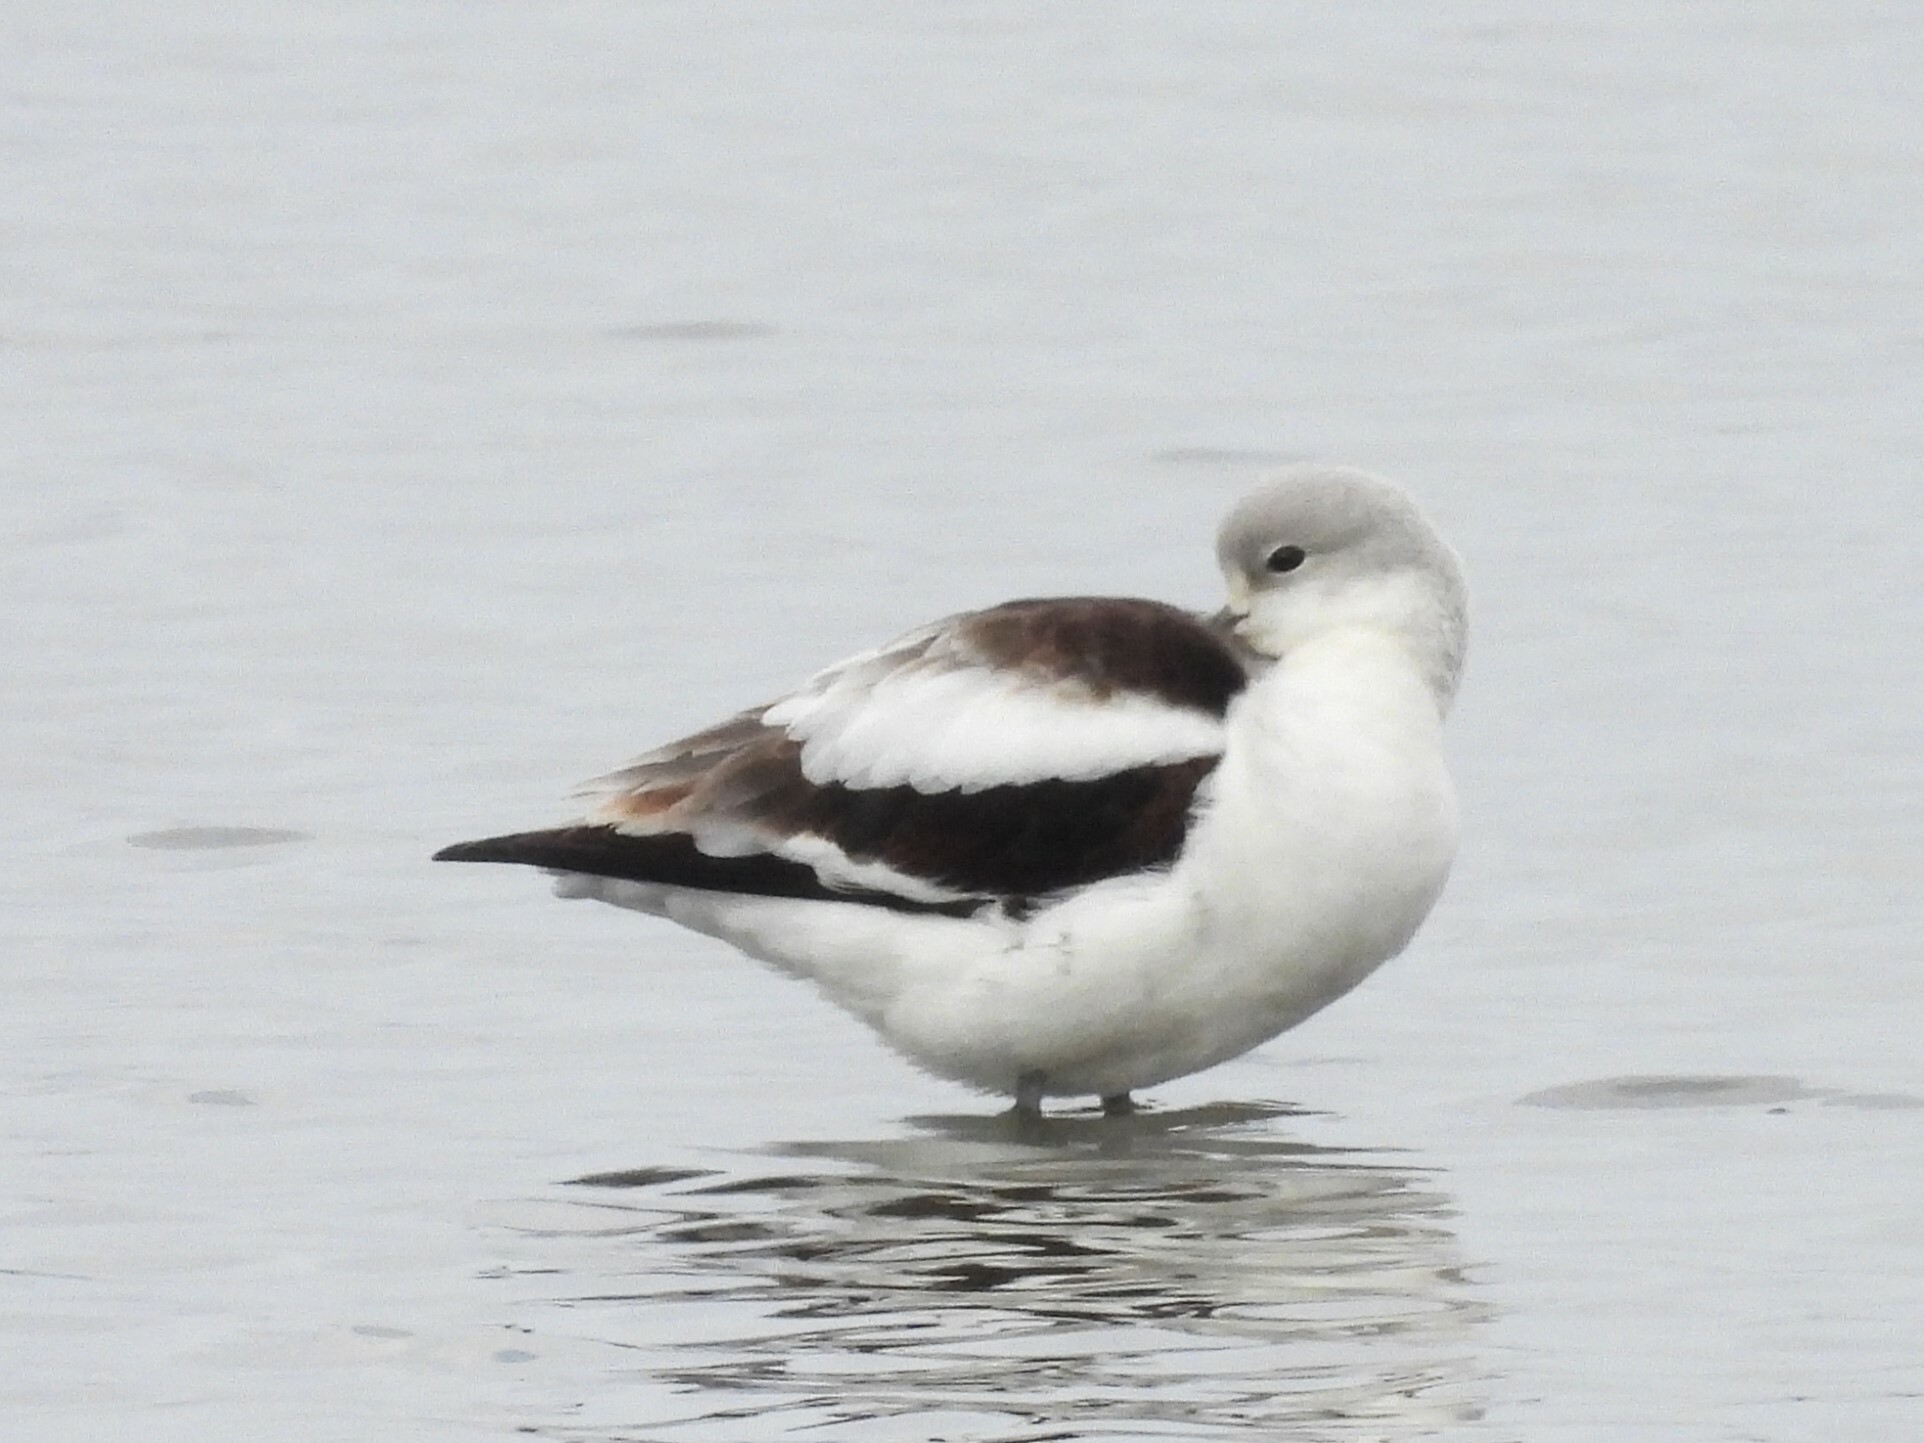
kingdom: Animalia
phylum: Chordata
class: Aves
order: Charadriiformes
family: Recurvirostridae
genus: Recurvirostra
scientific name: Recurvirostra americana
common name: American avocet
